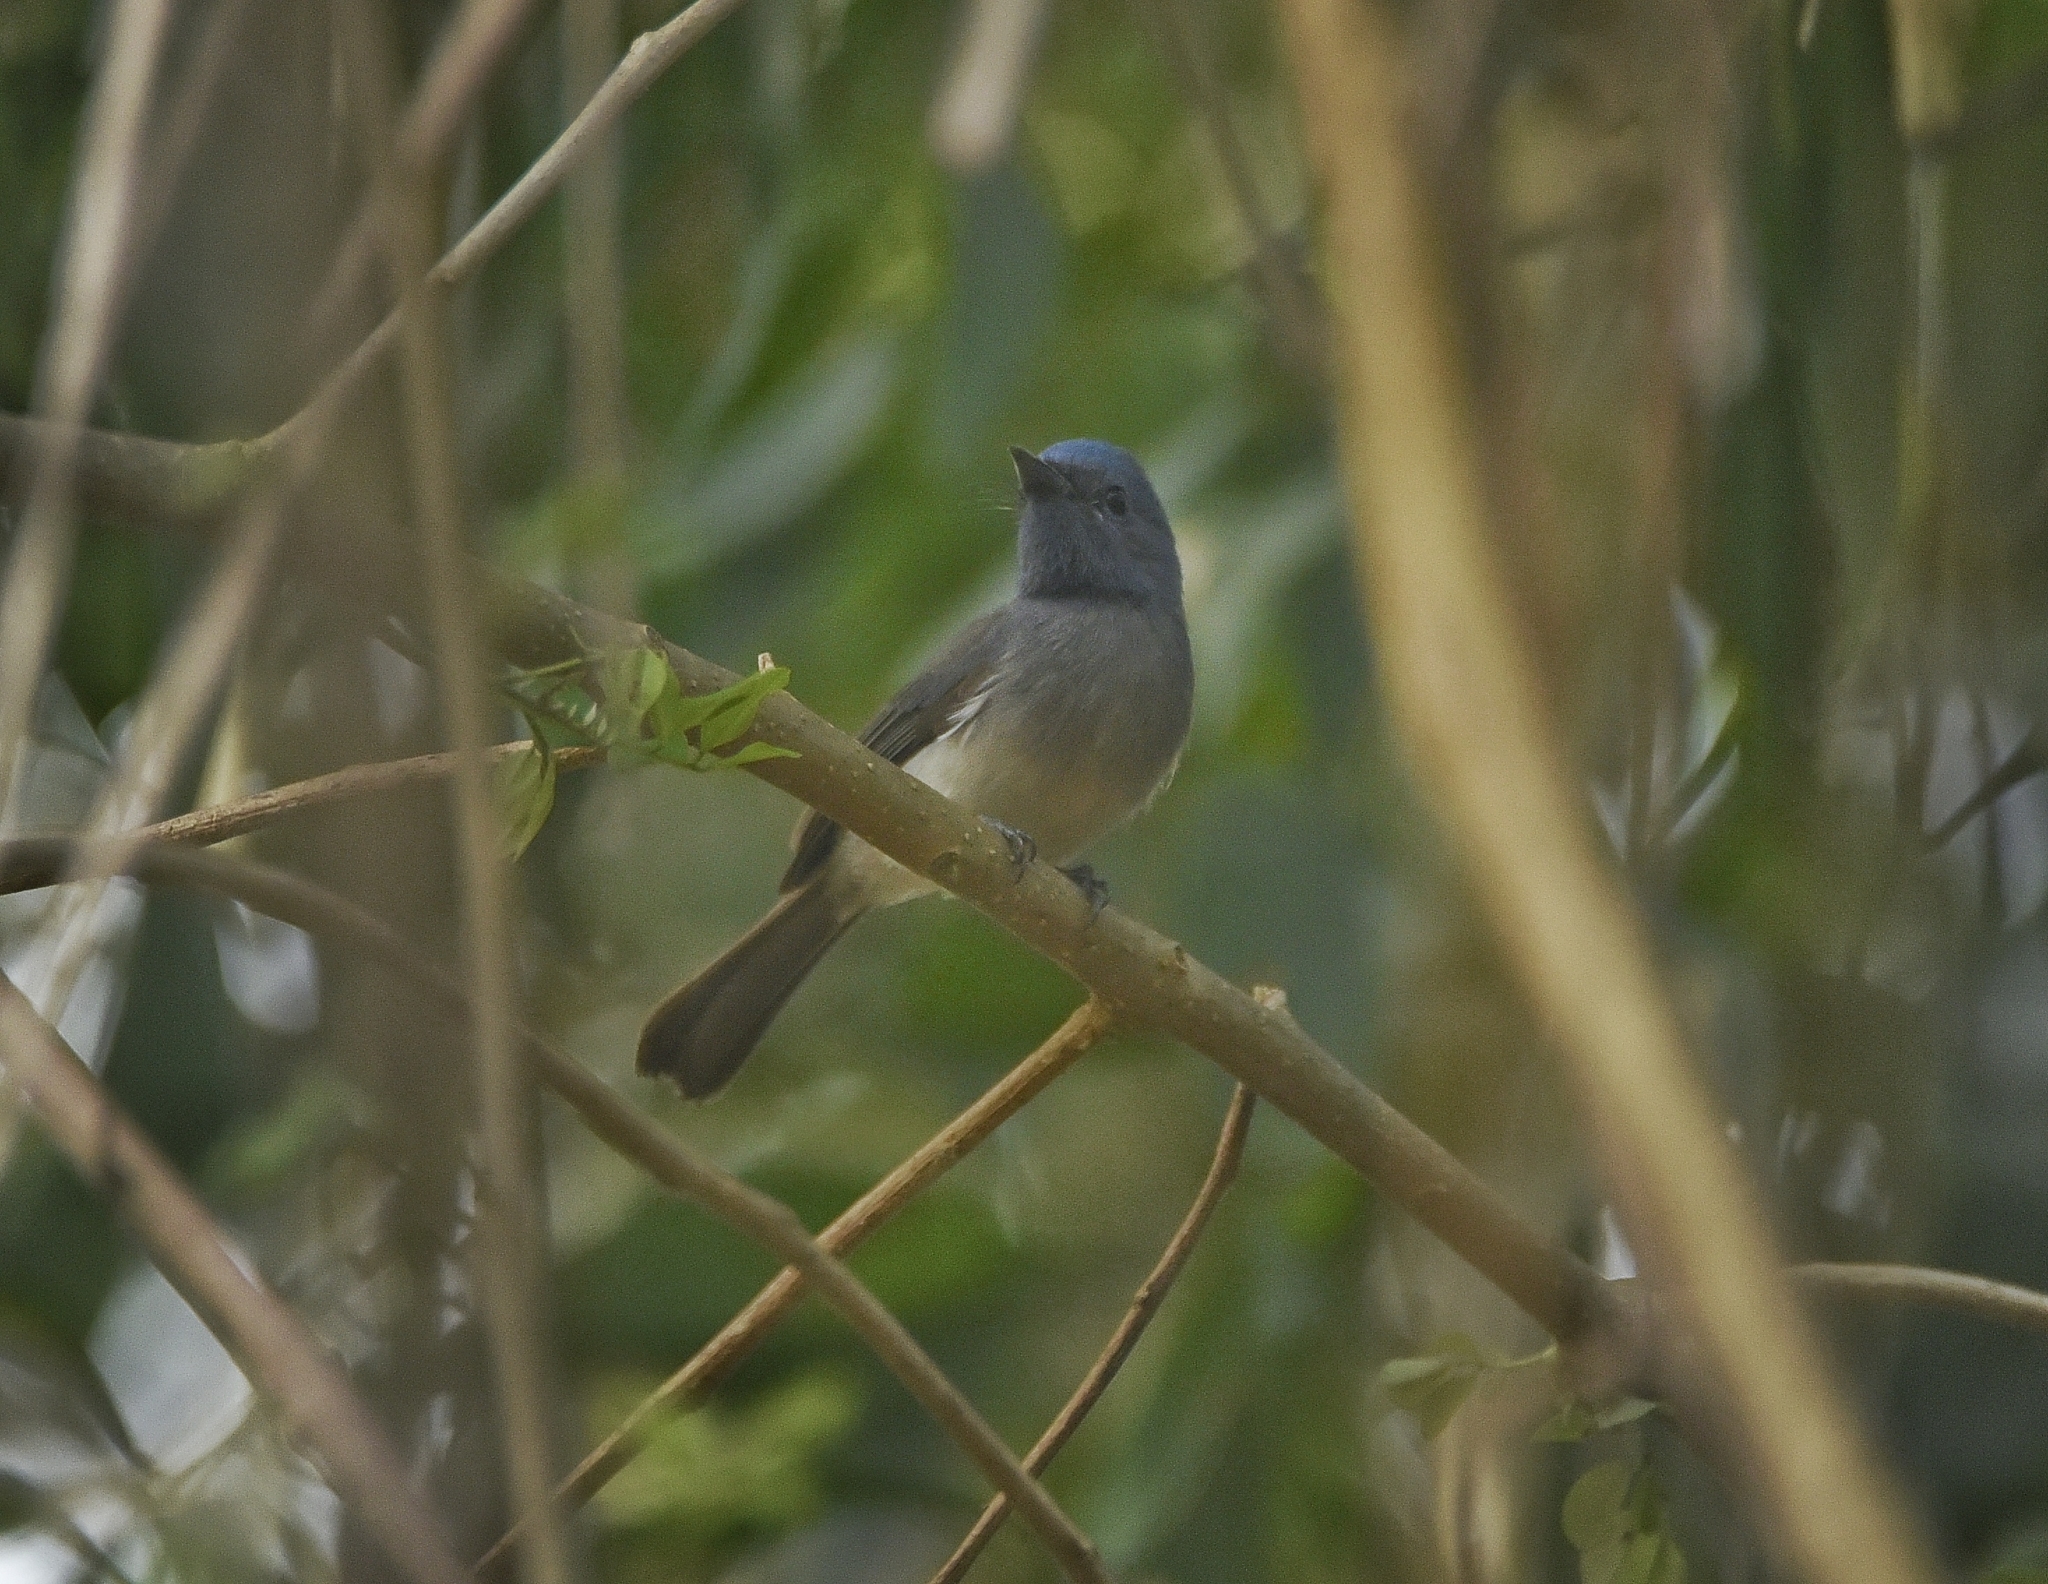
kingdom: Animalia
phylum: Chordata
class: Aves
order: Passeriformes
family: Monarchidae
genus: Hypothymis
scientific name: Hypothymis azurea
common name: Black-naped monarch
